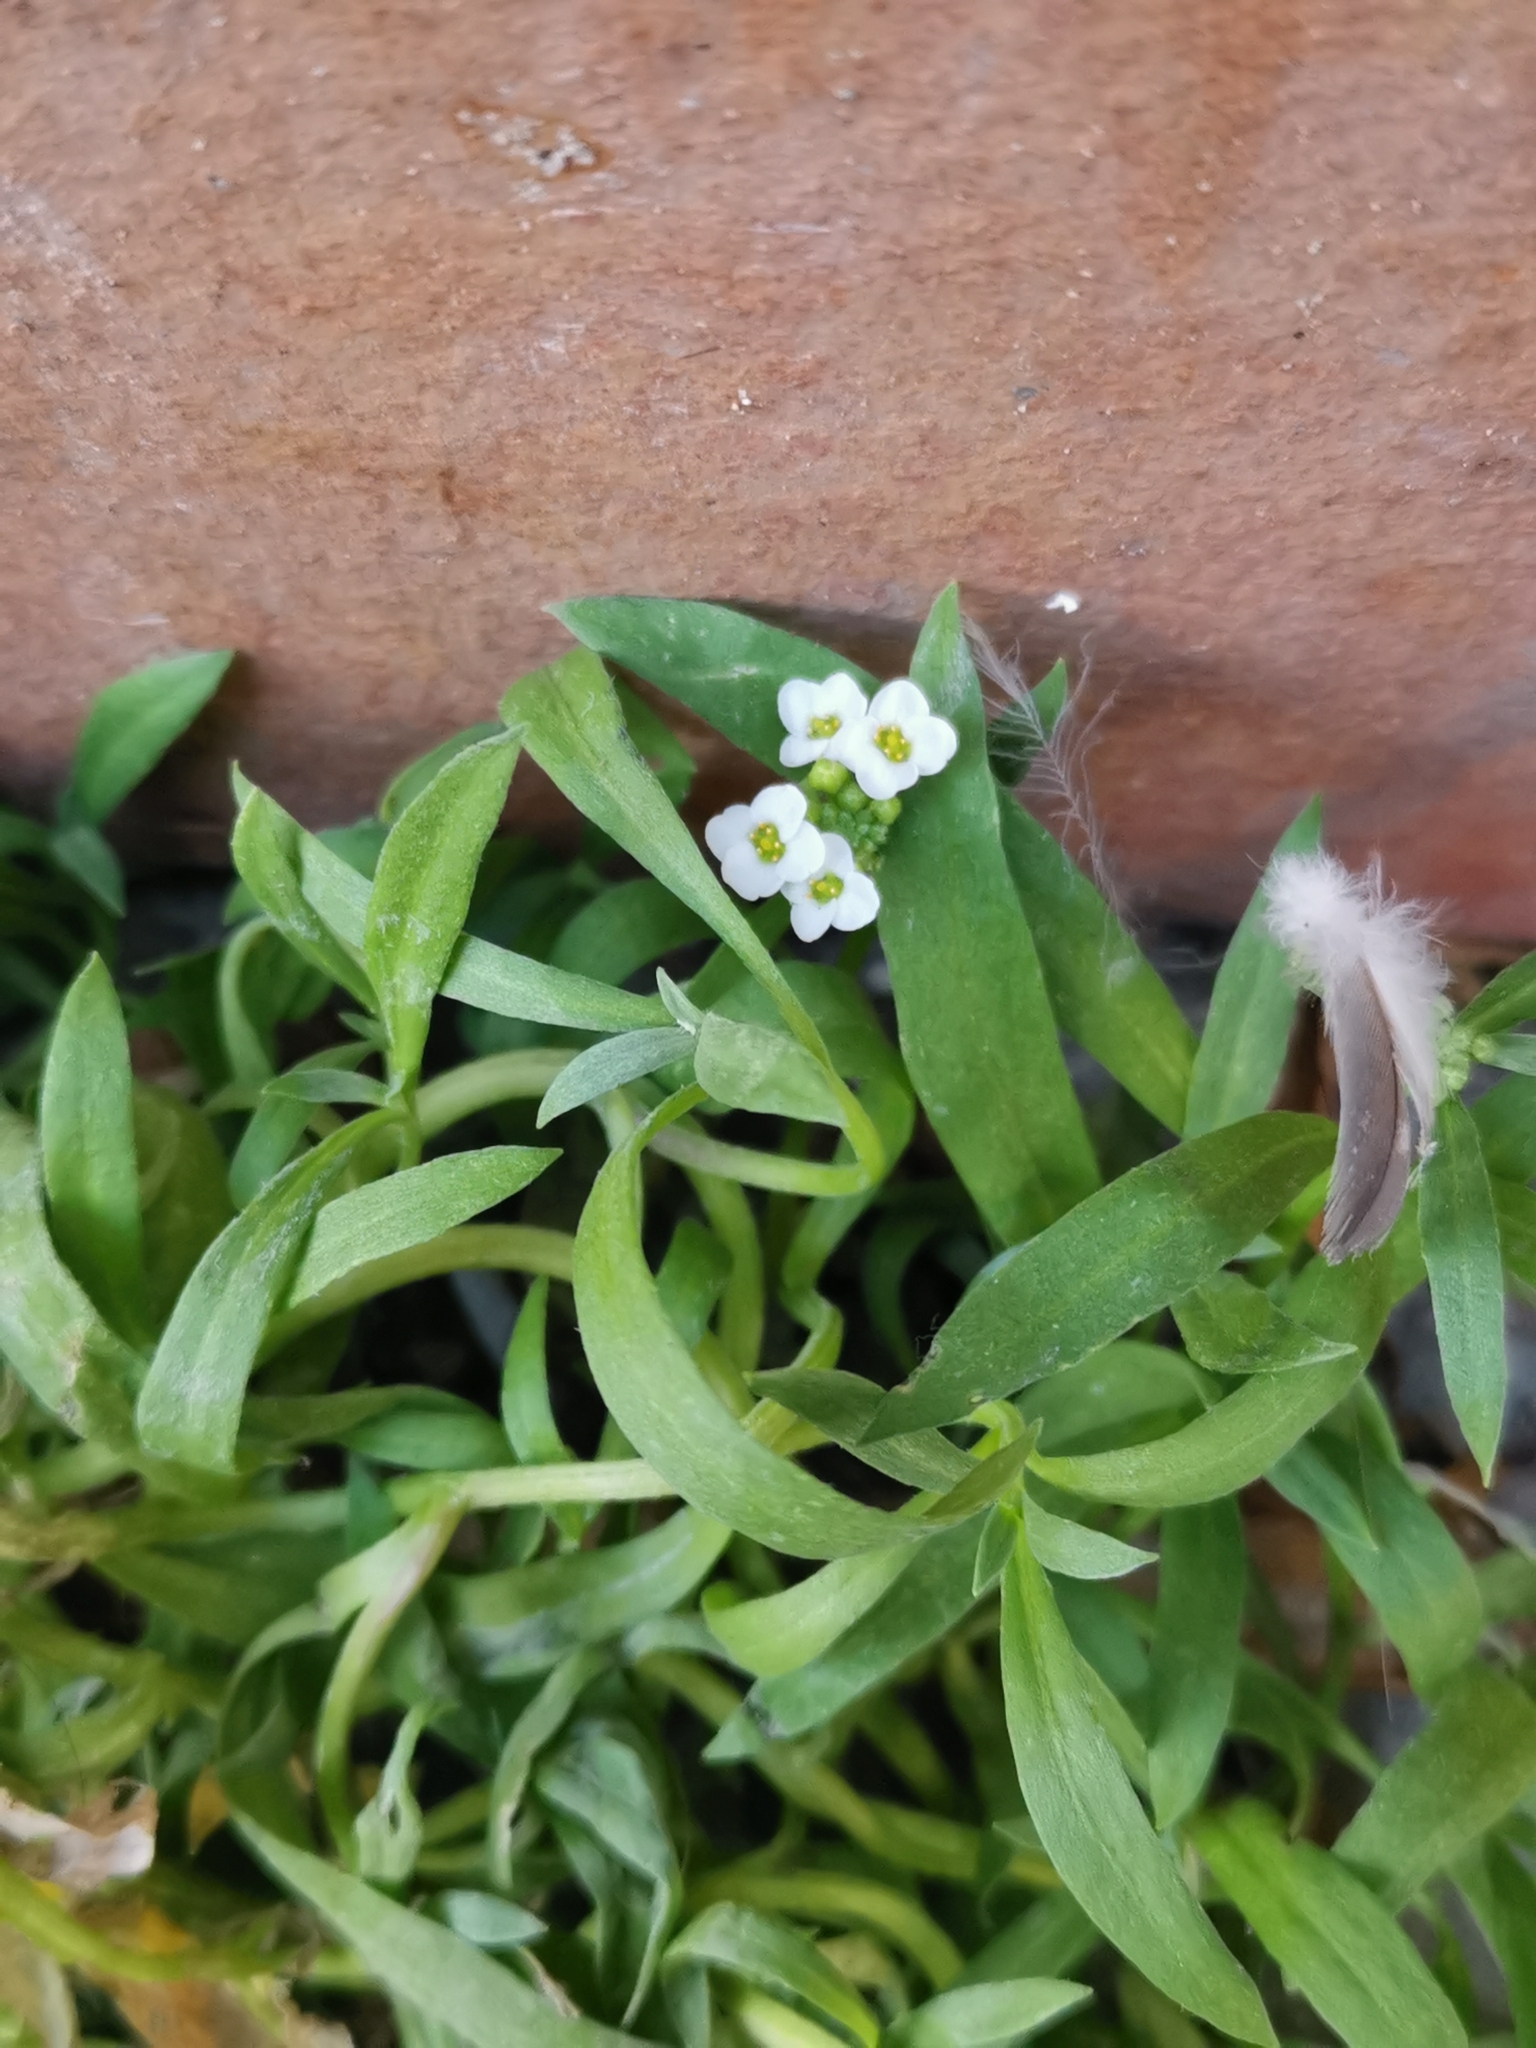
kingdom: Plantae
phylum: Tracheophyta
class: Magnoliopsida
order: Brassicales
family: Brassicaceae
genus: Lobularia
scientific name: Lobularia maritima
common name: Sweet alison
